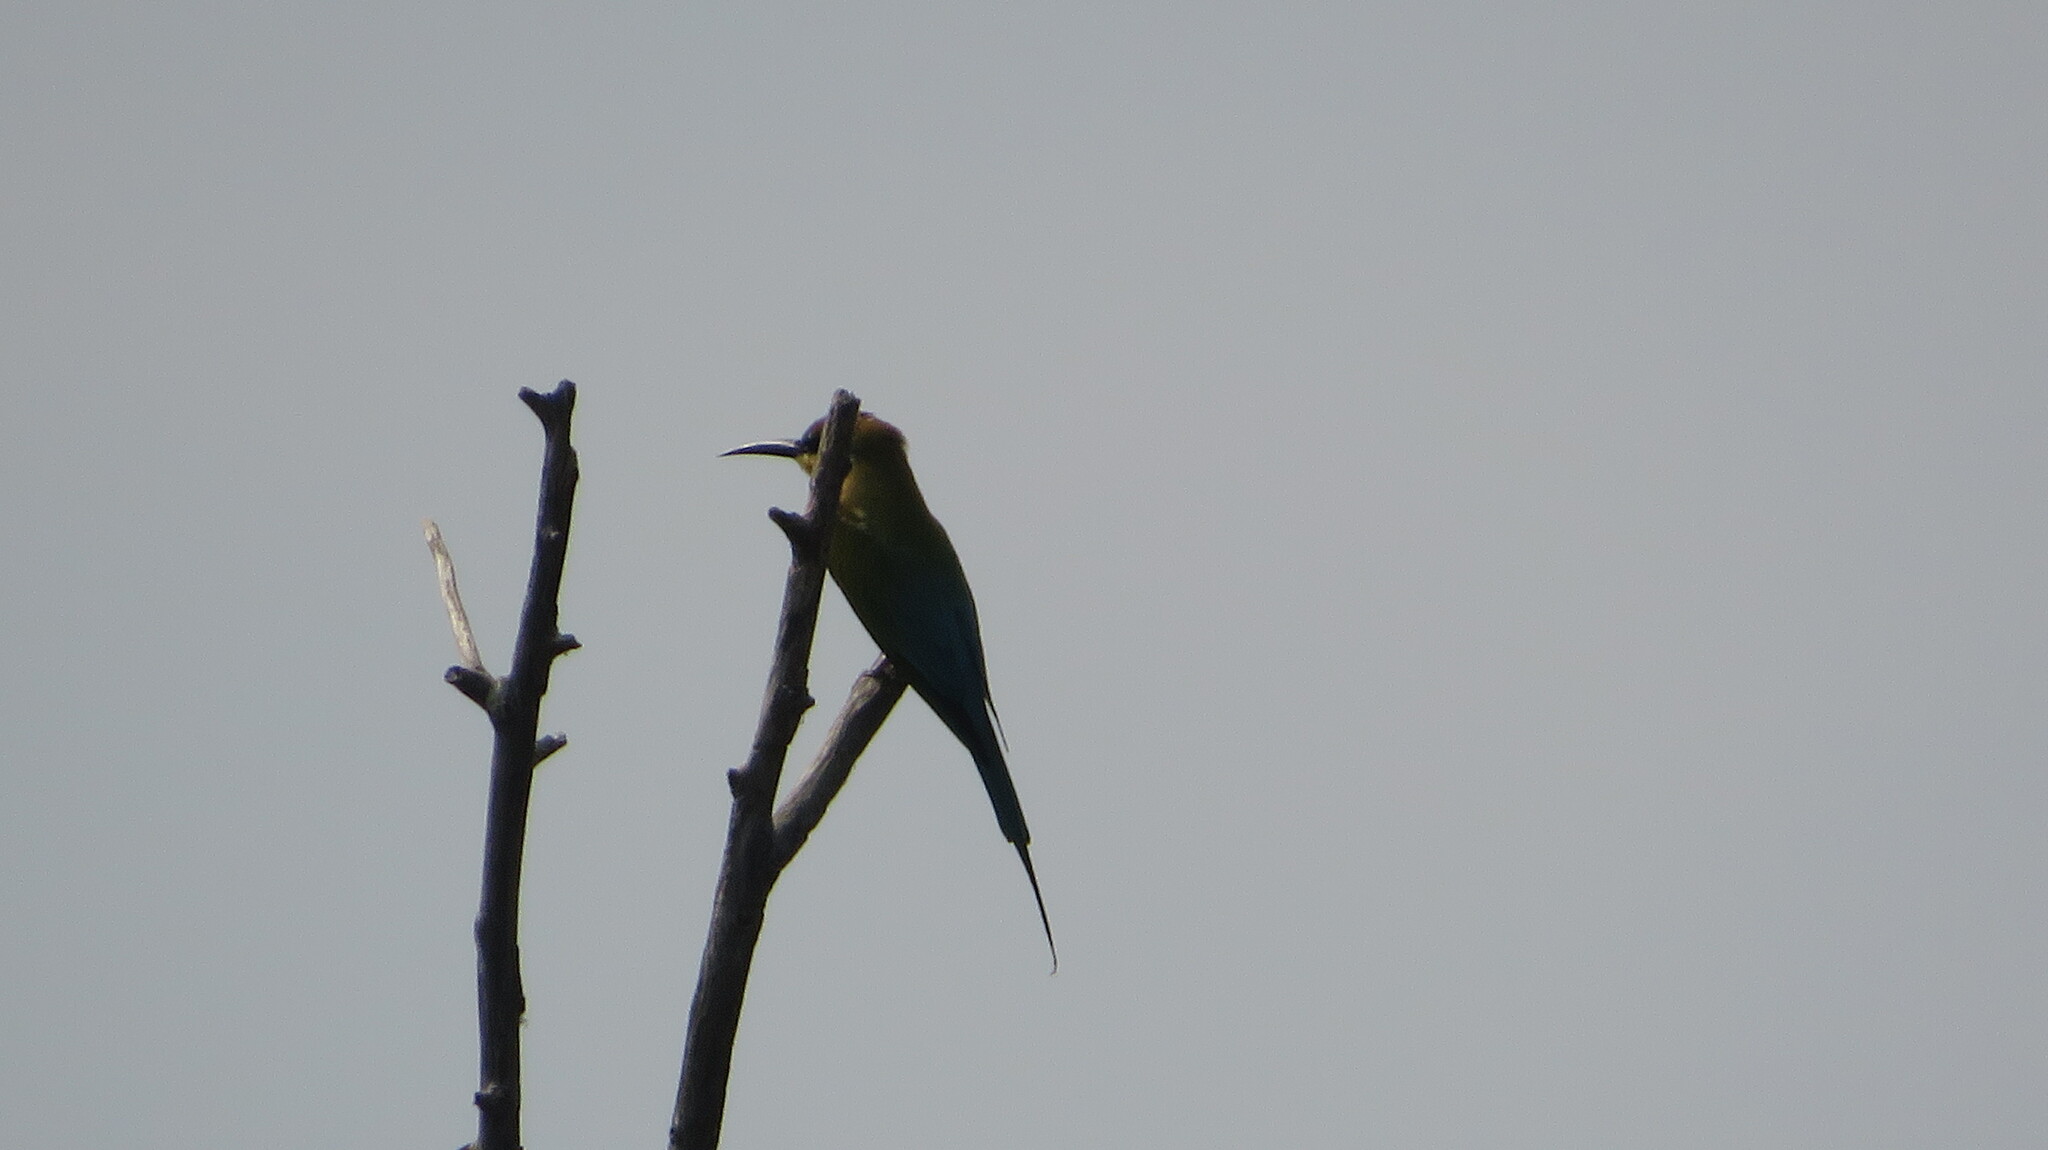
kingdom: Animalia
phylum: Chordata
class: Aves
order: Coraciiformes
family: Meropidae
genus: Merops
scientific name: Merops philippinus
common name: Blue-tailed bee-eater
